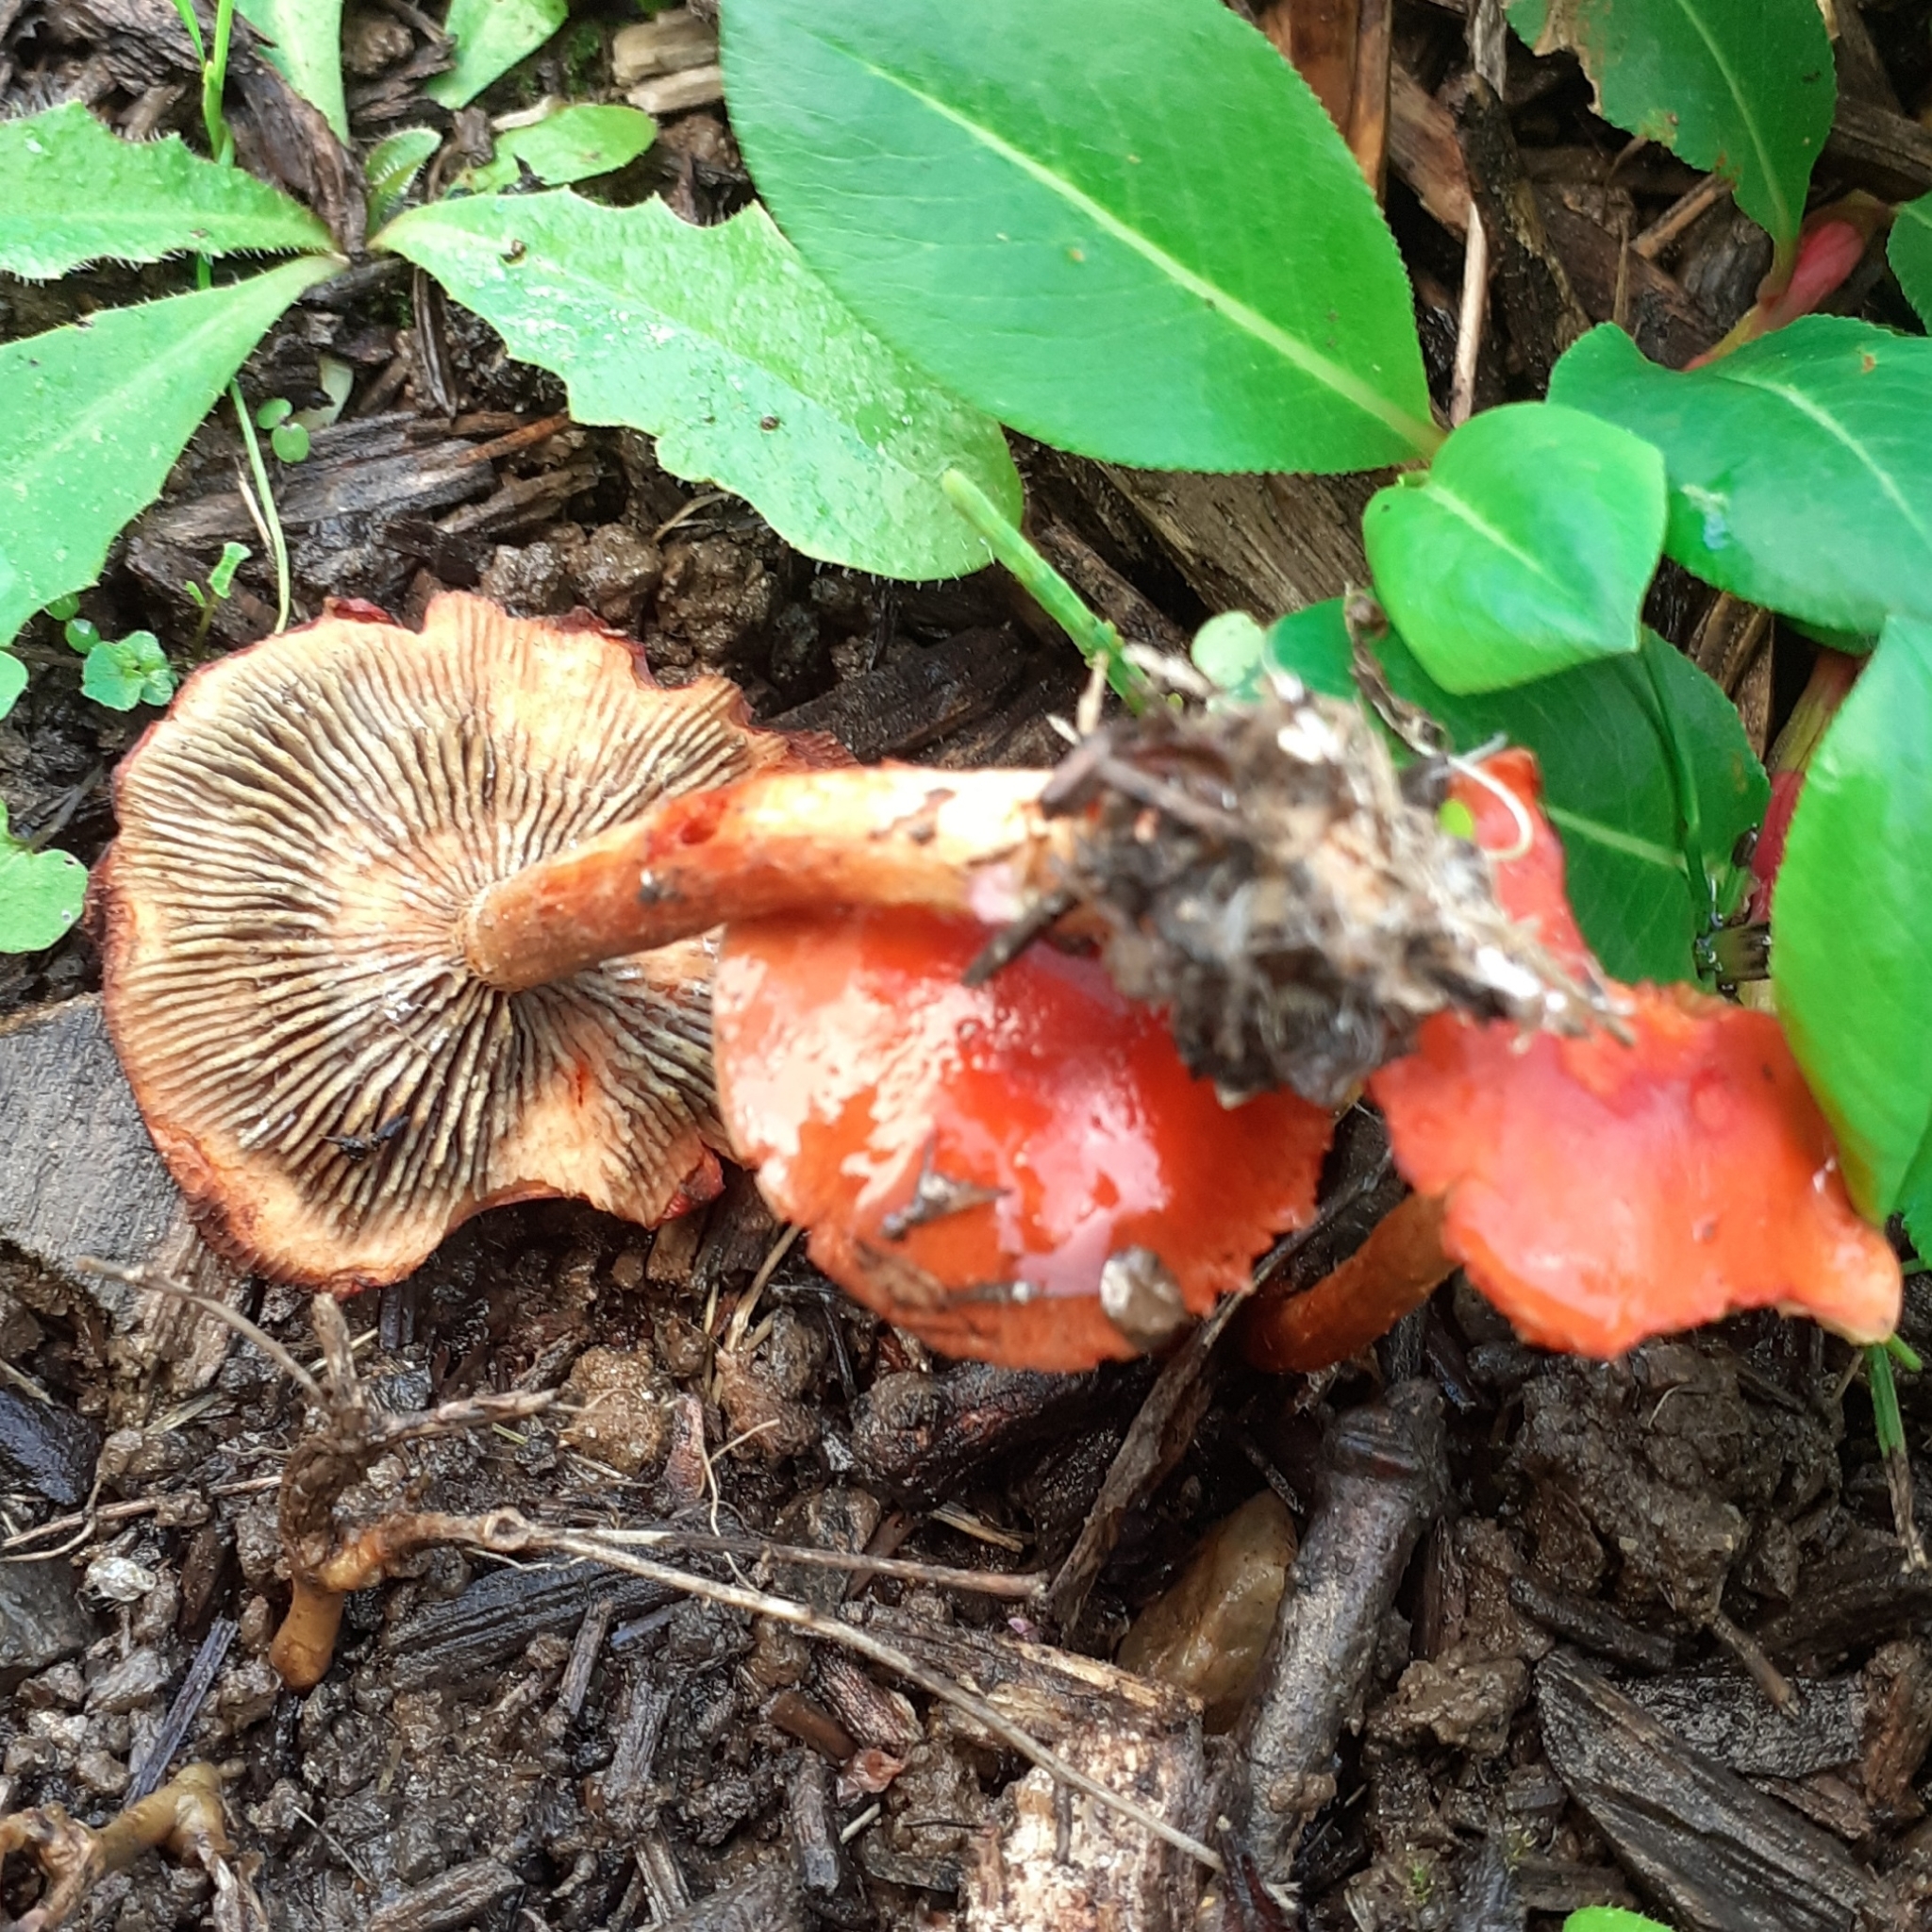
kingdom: Fungi
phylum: Basidiomycota
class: Agaricomycetes
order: Agaricales
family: Strophariaceae
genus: Leratiomyces
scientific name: Leratiomyces ceres
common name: Redlead roundhead
